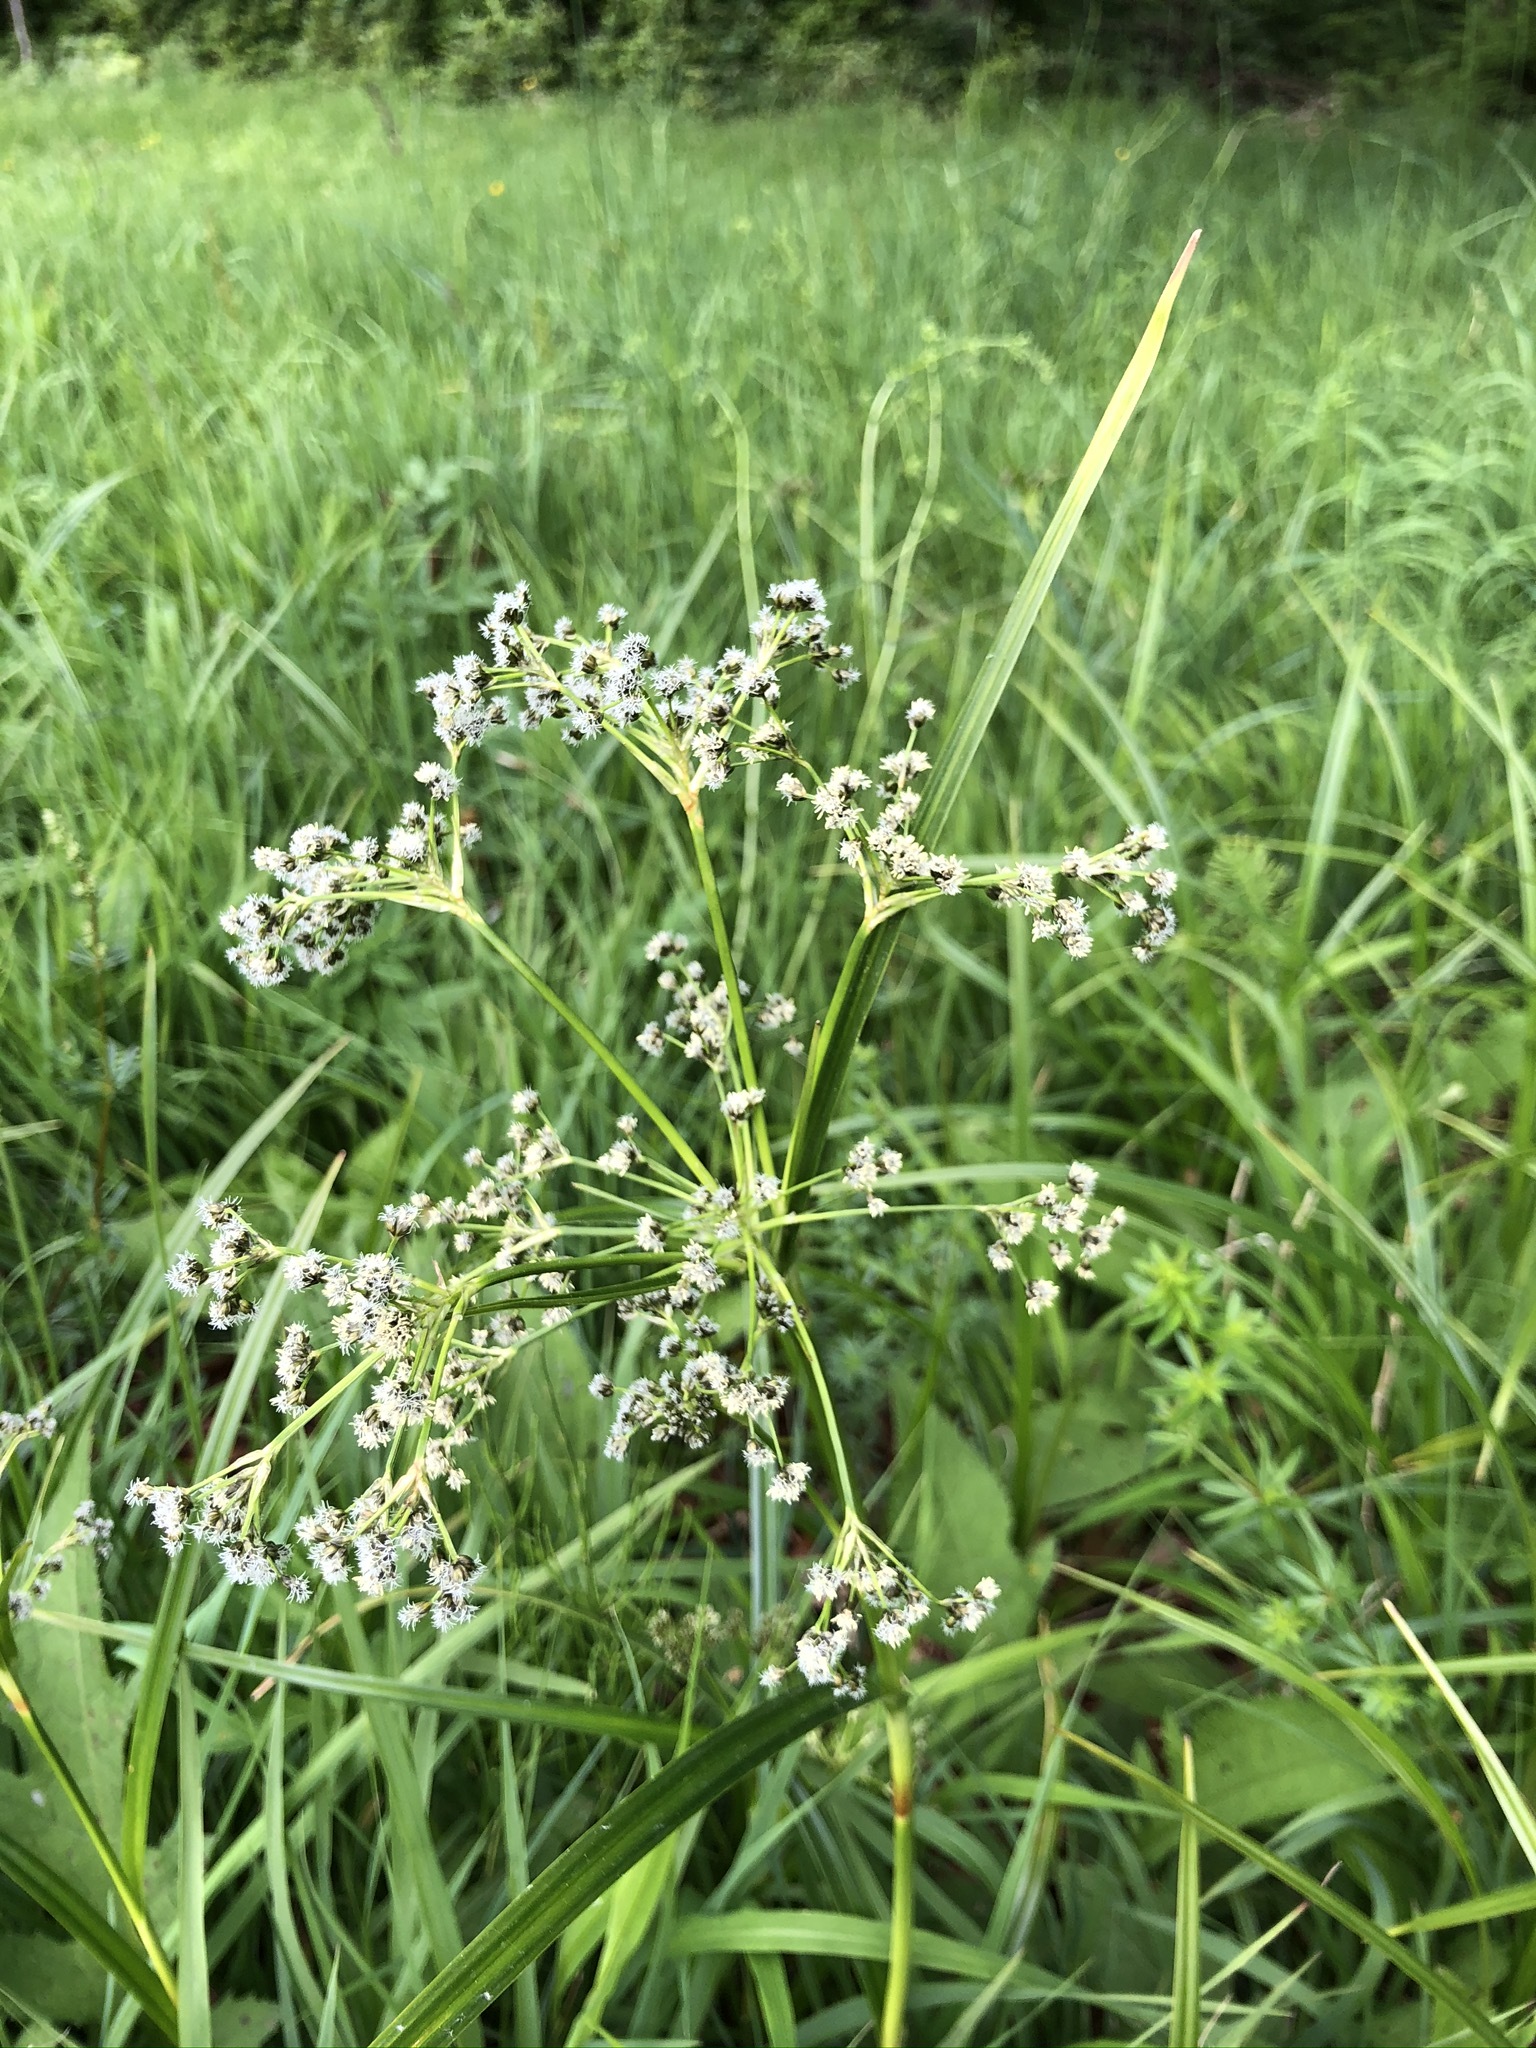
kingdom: Plantae
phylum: Tracheophyta
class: Liliopsida
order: Poales
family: Cyperaceae
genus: Scirpus
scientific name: Scirpus sylvaticus
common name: Wood club-rush
